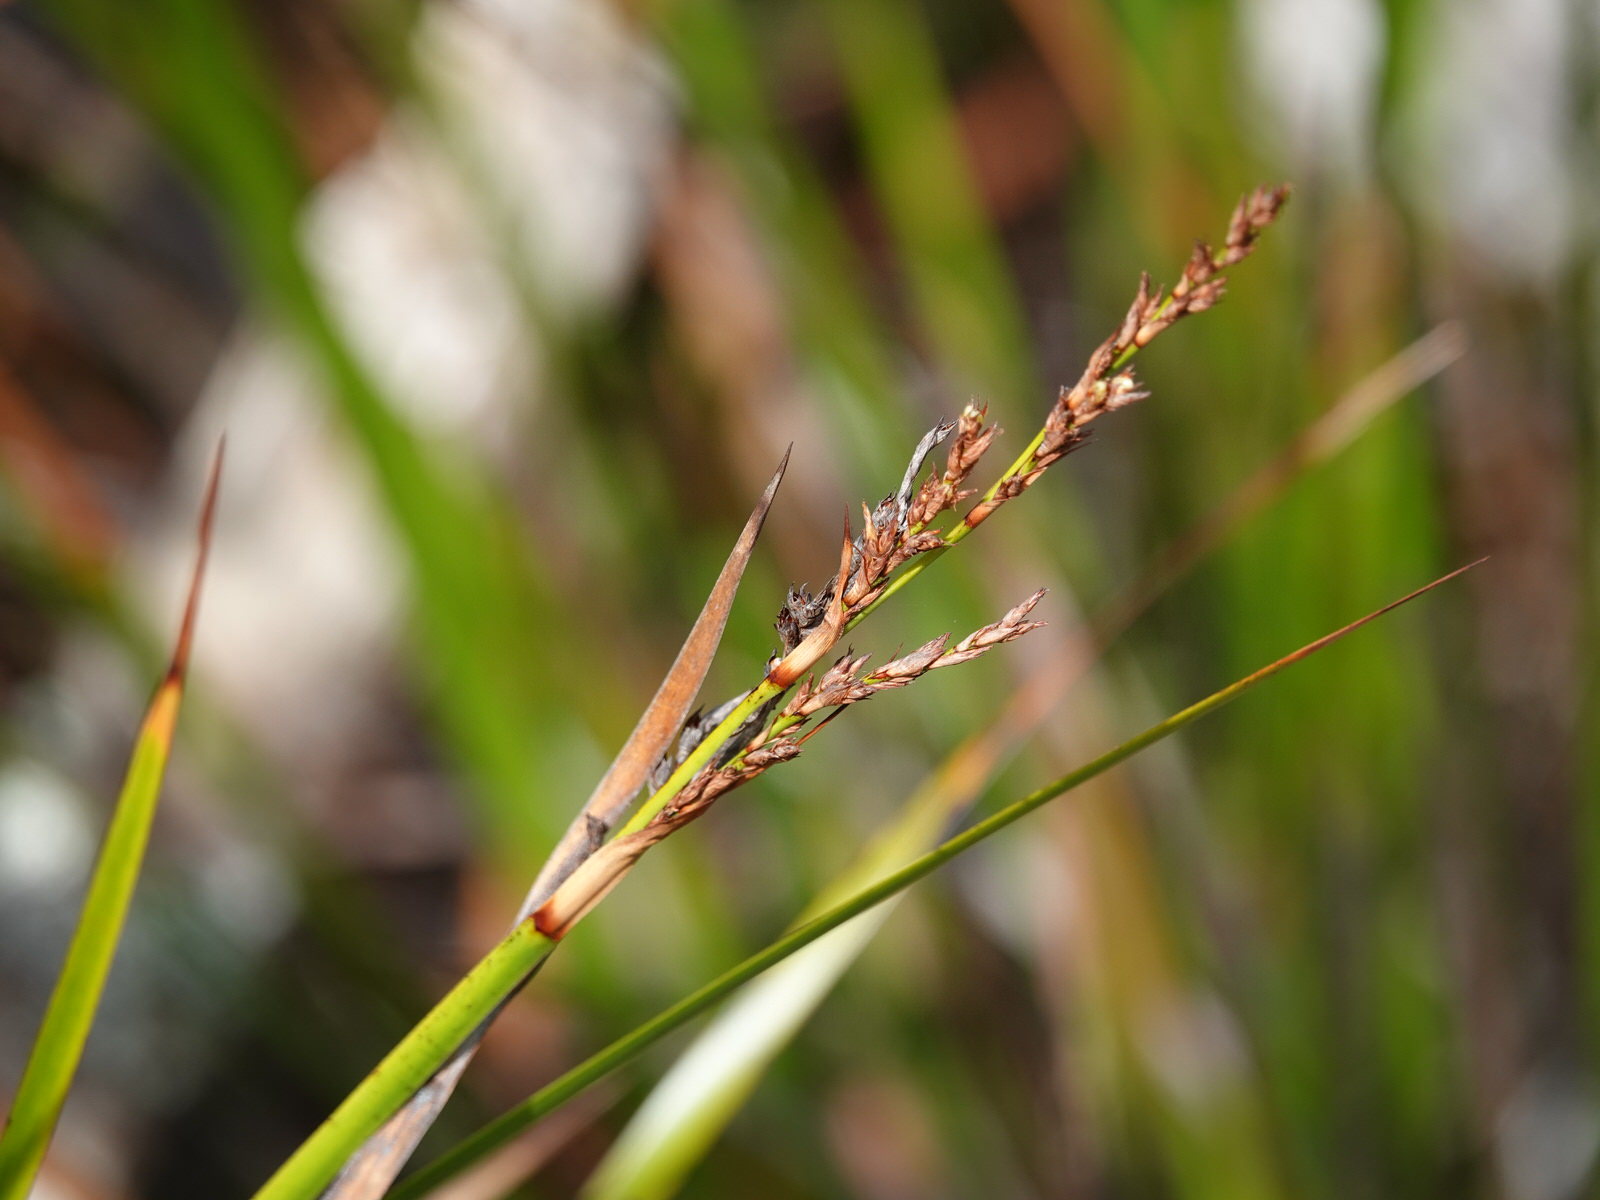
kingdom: Plantae
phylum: Tracheophyta
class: Liliopsida
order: Poales
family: Cyperaceae
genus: Lepidosperma
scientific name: Lepidosperma laterale
